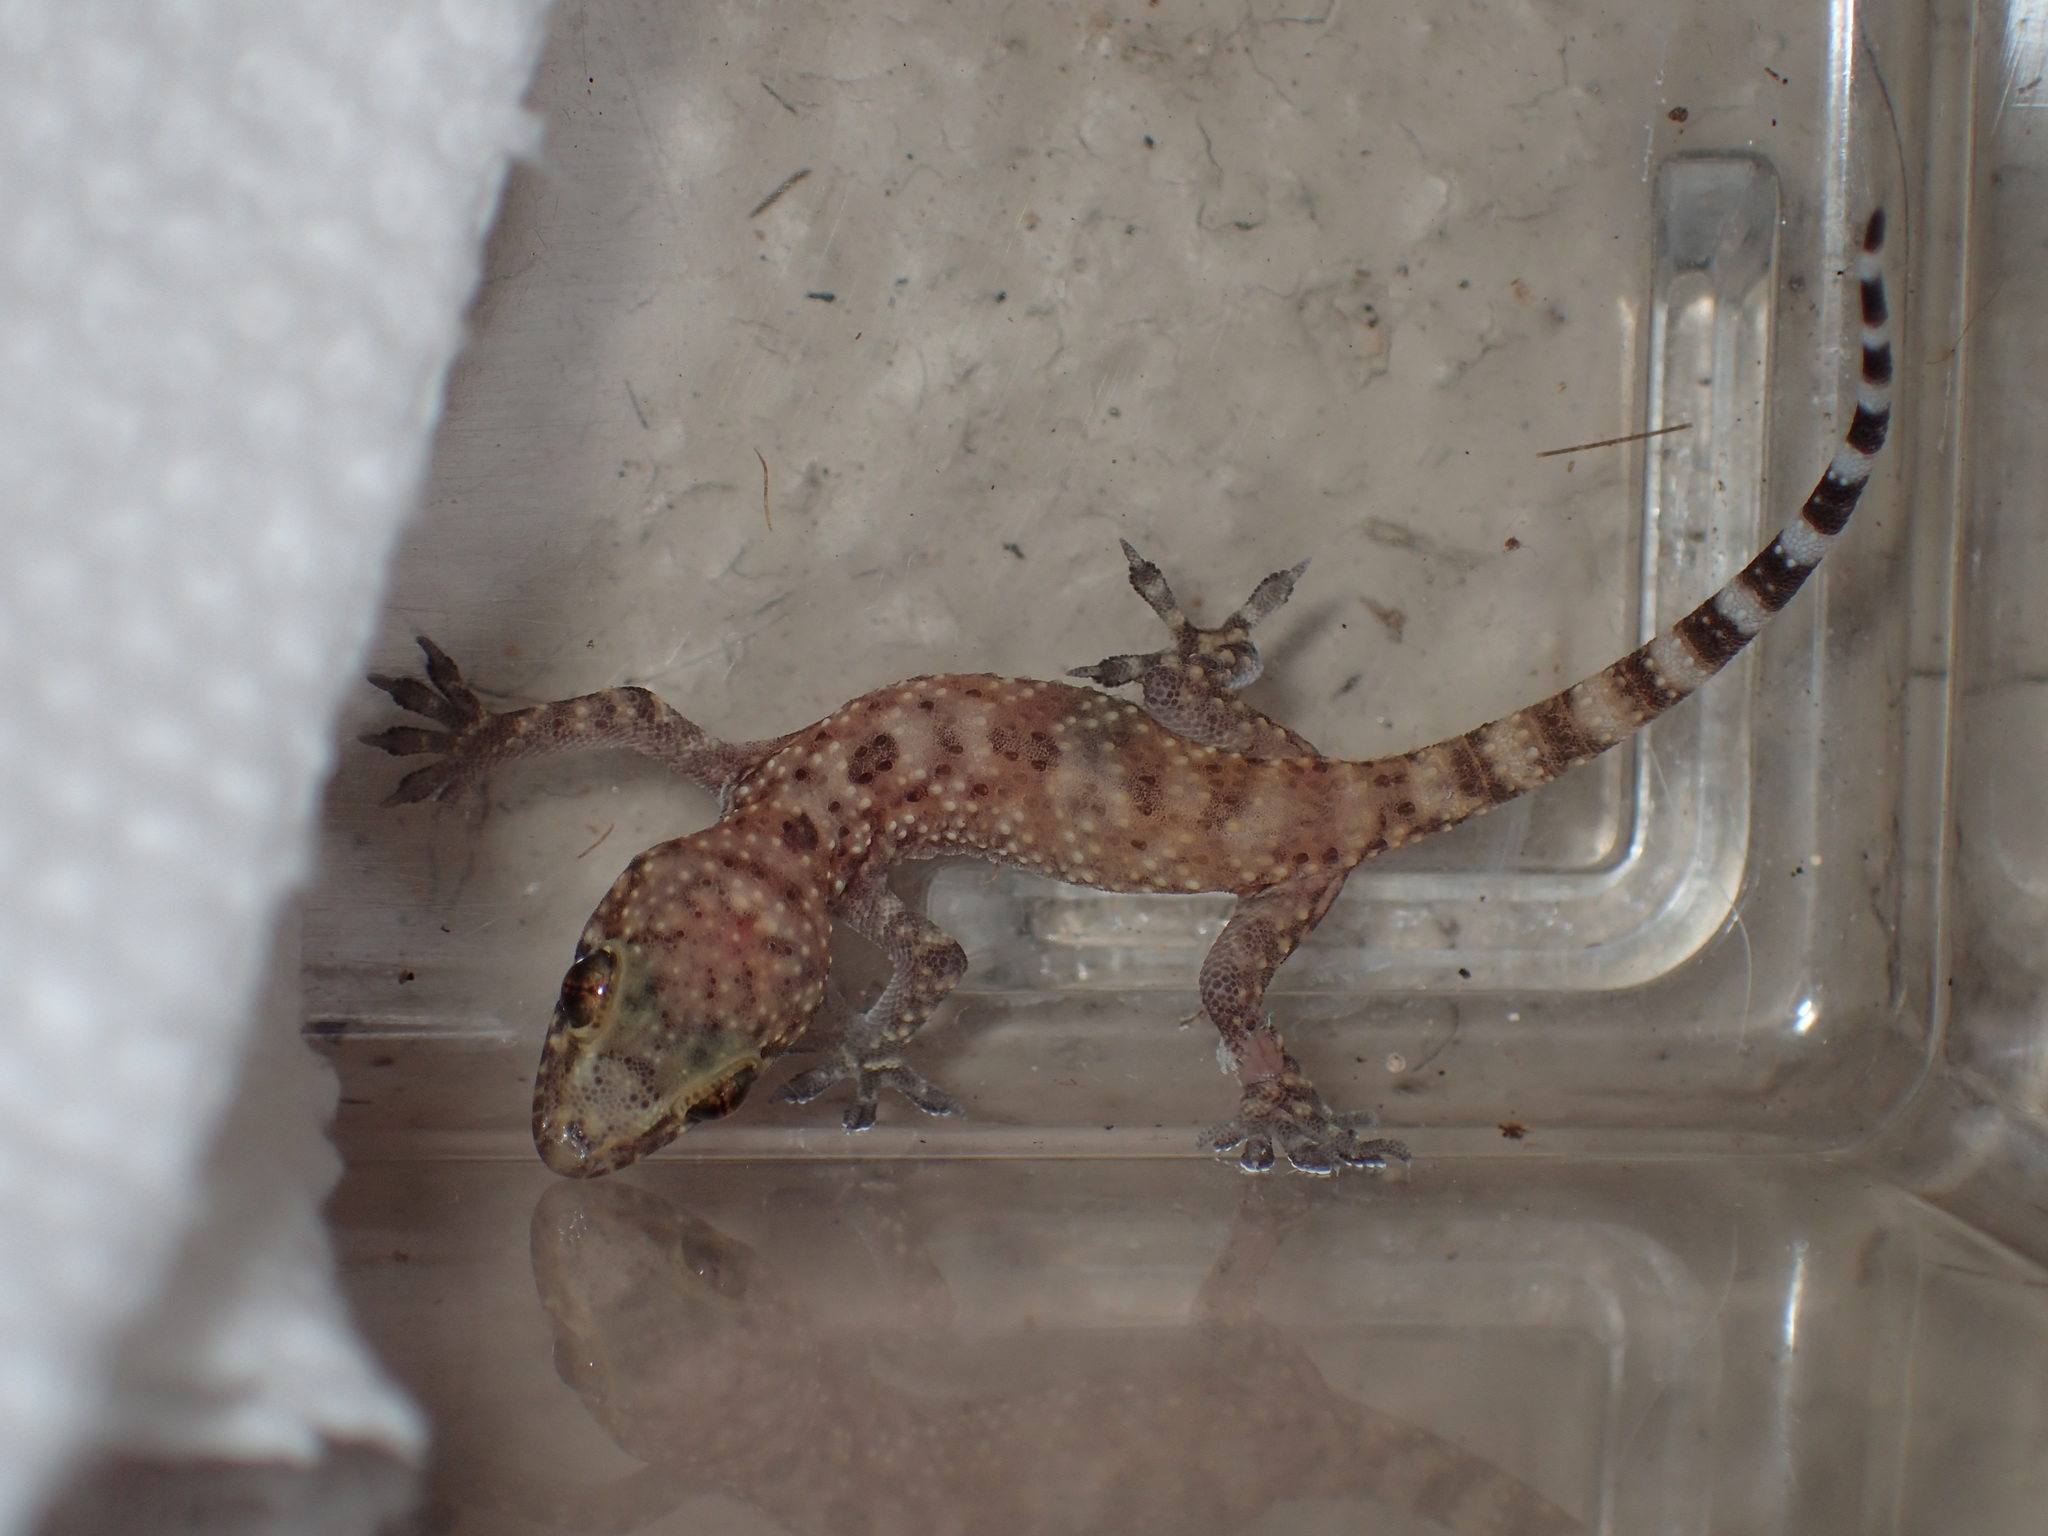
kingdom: Animalia
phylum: Chordata
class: Squamata
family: Gekkonidae
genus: Hemidactylus
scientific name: Hemidactylus turcicus
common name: Turkish gecko
